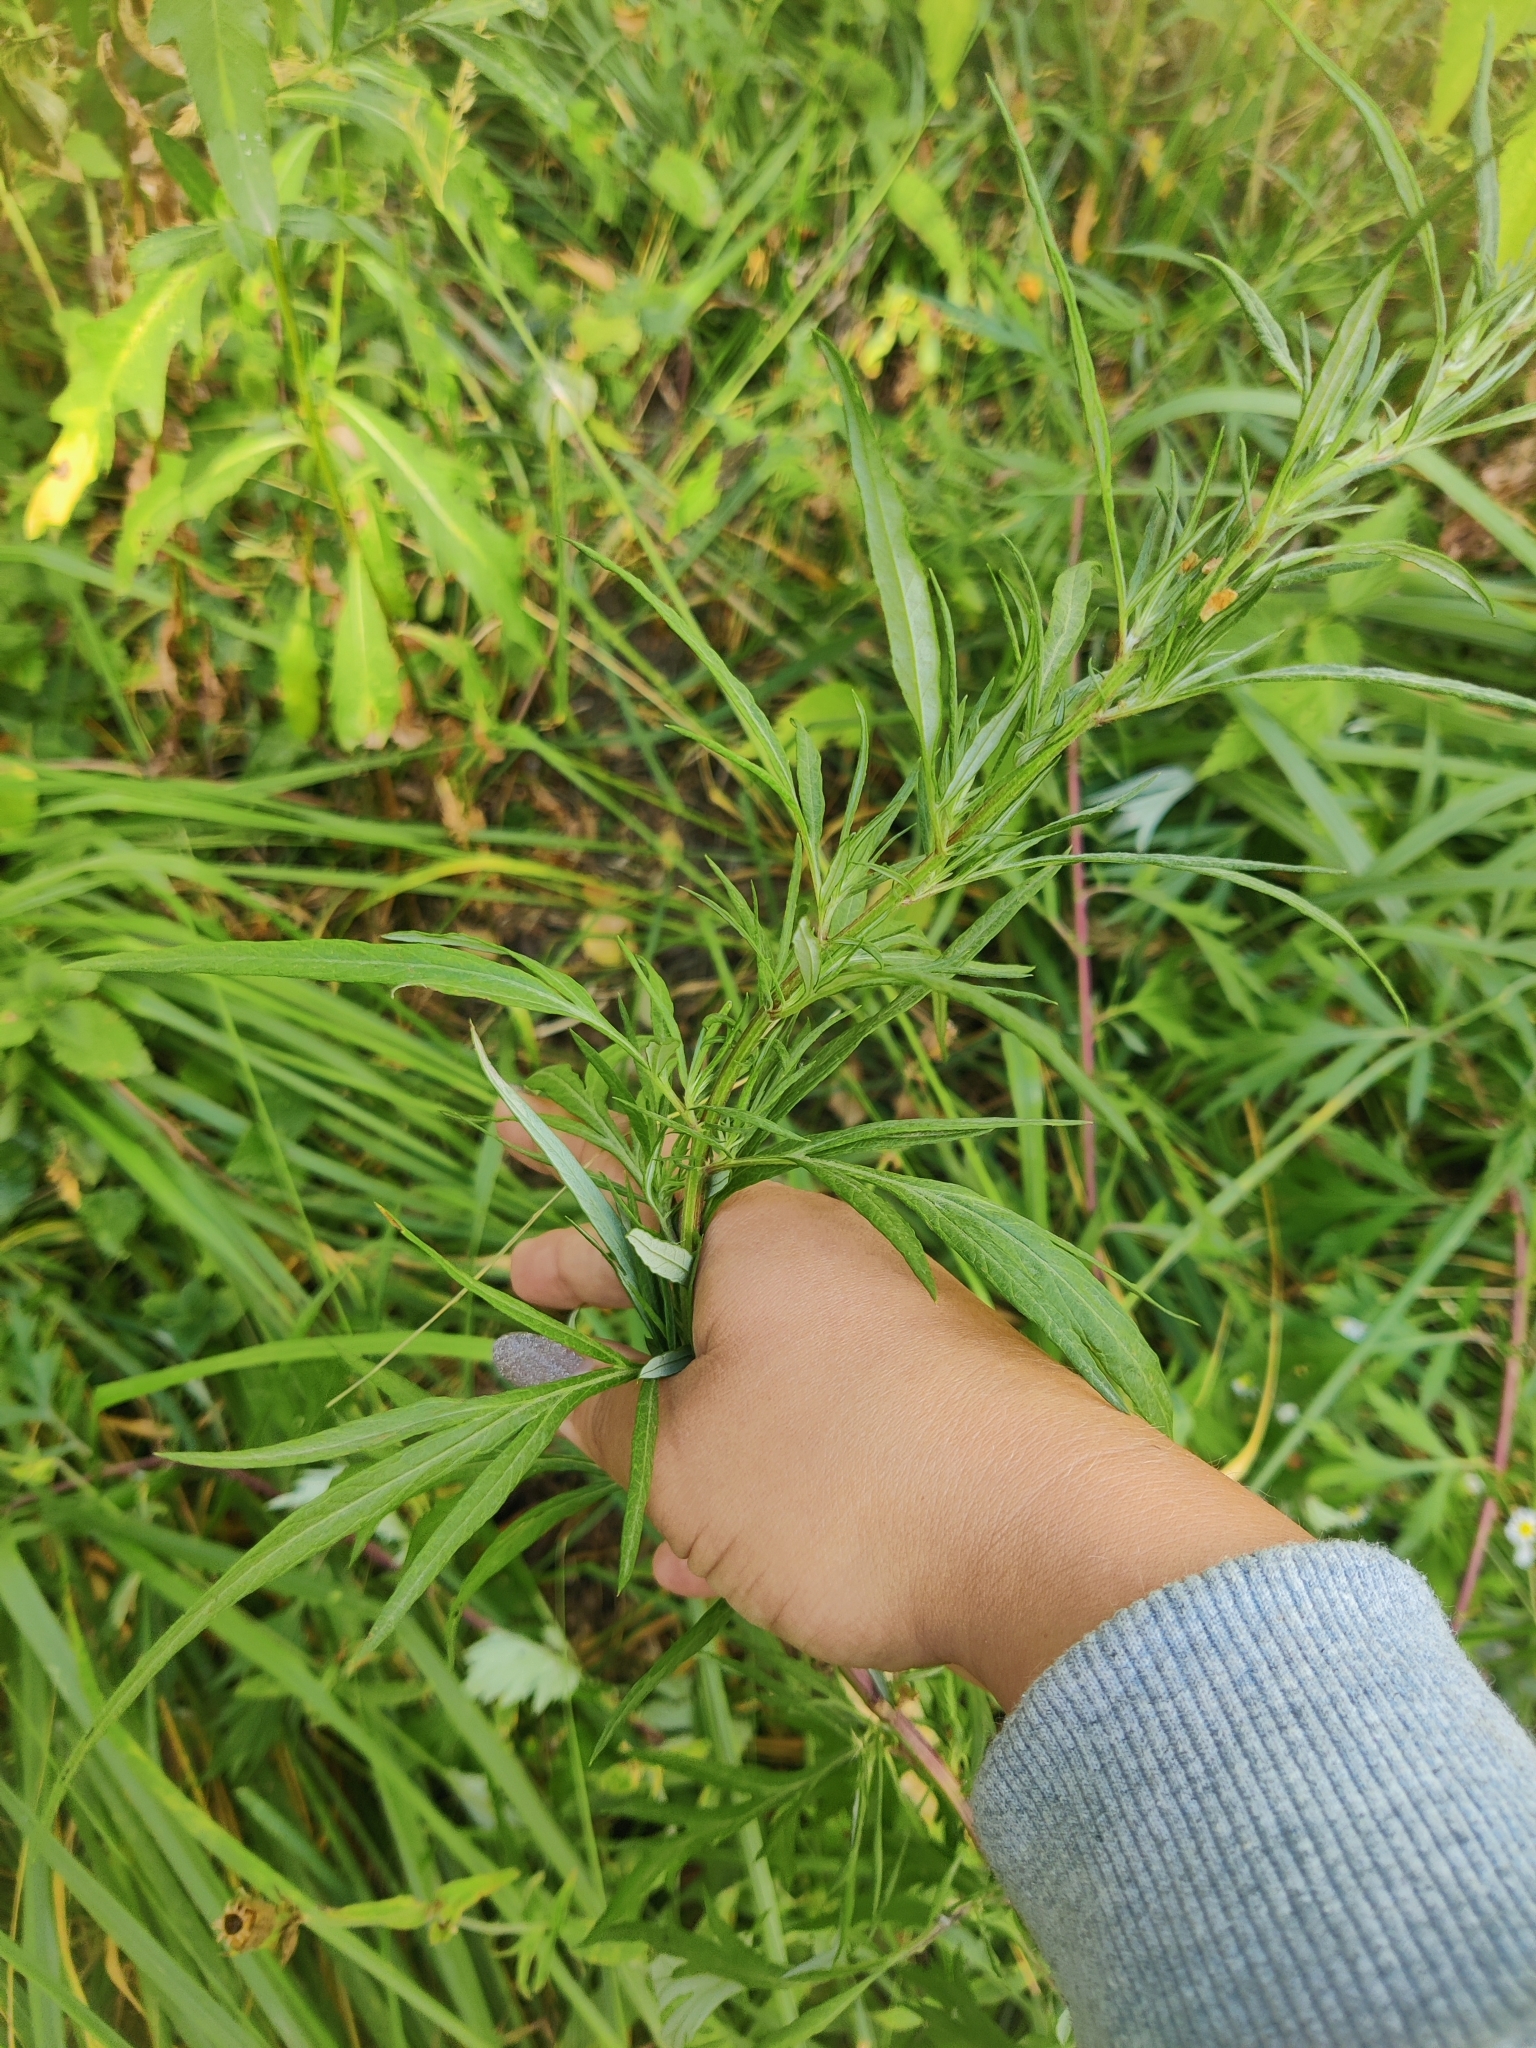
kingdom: Plantae
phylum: Tracheophyta
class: Magnoliopsida
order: Asterales
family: Asteraceae
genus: Artemisia
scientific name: Artemisia vulgaris
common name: Mugwort
